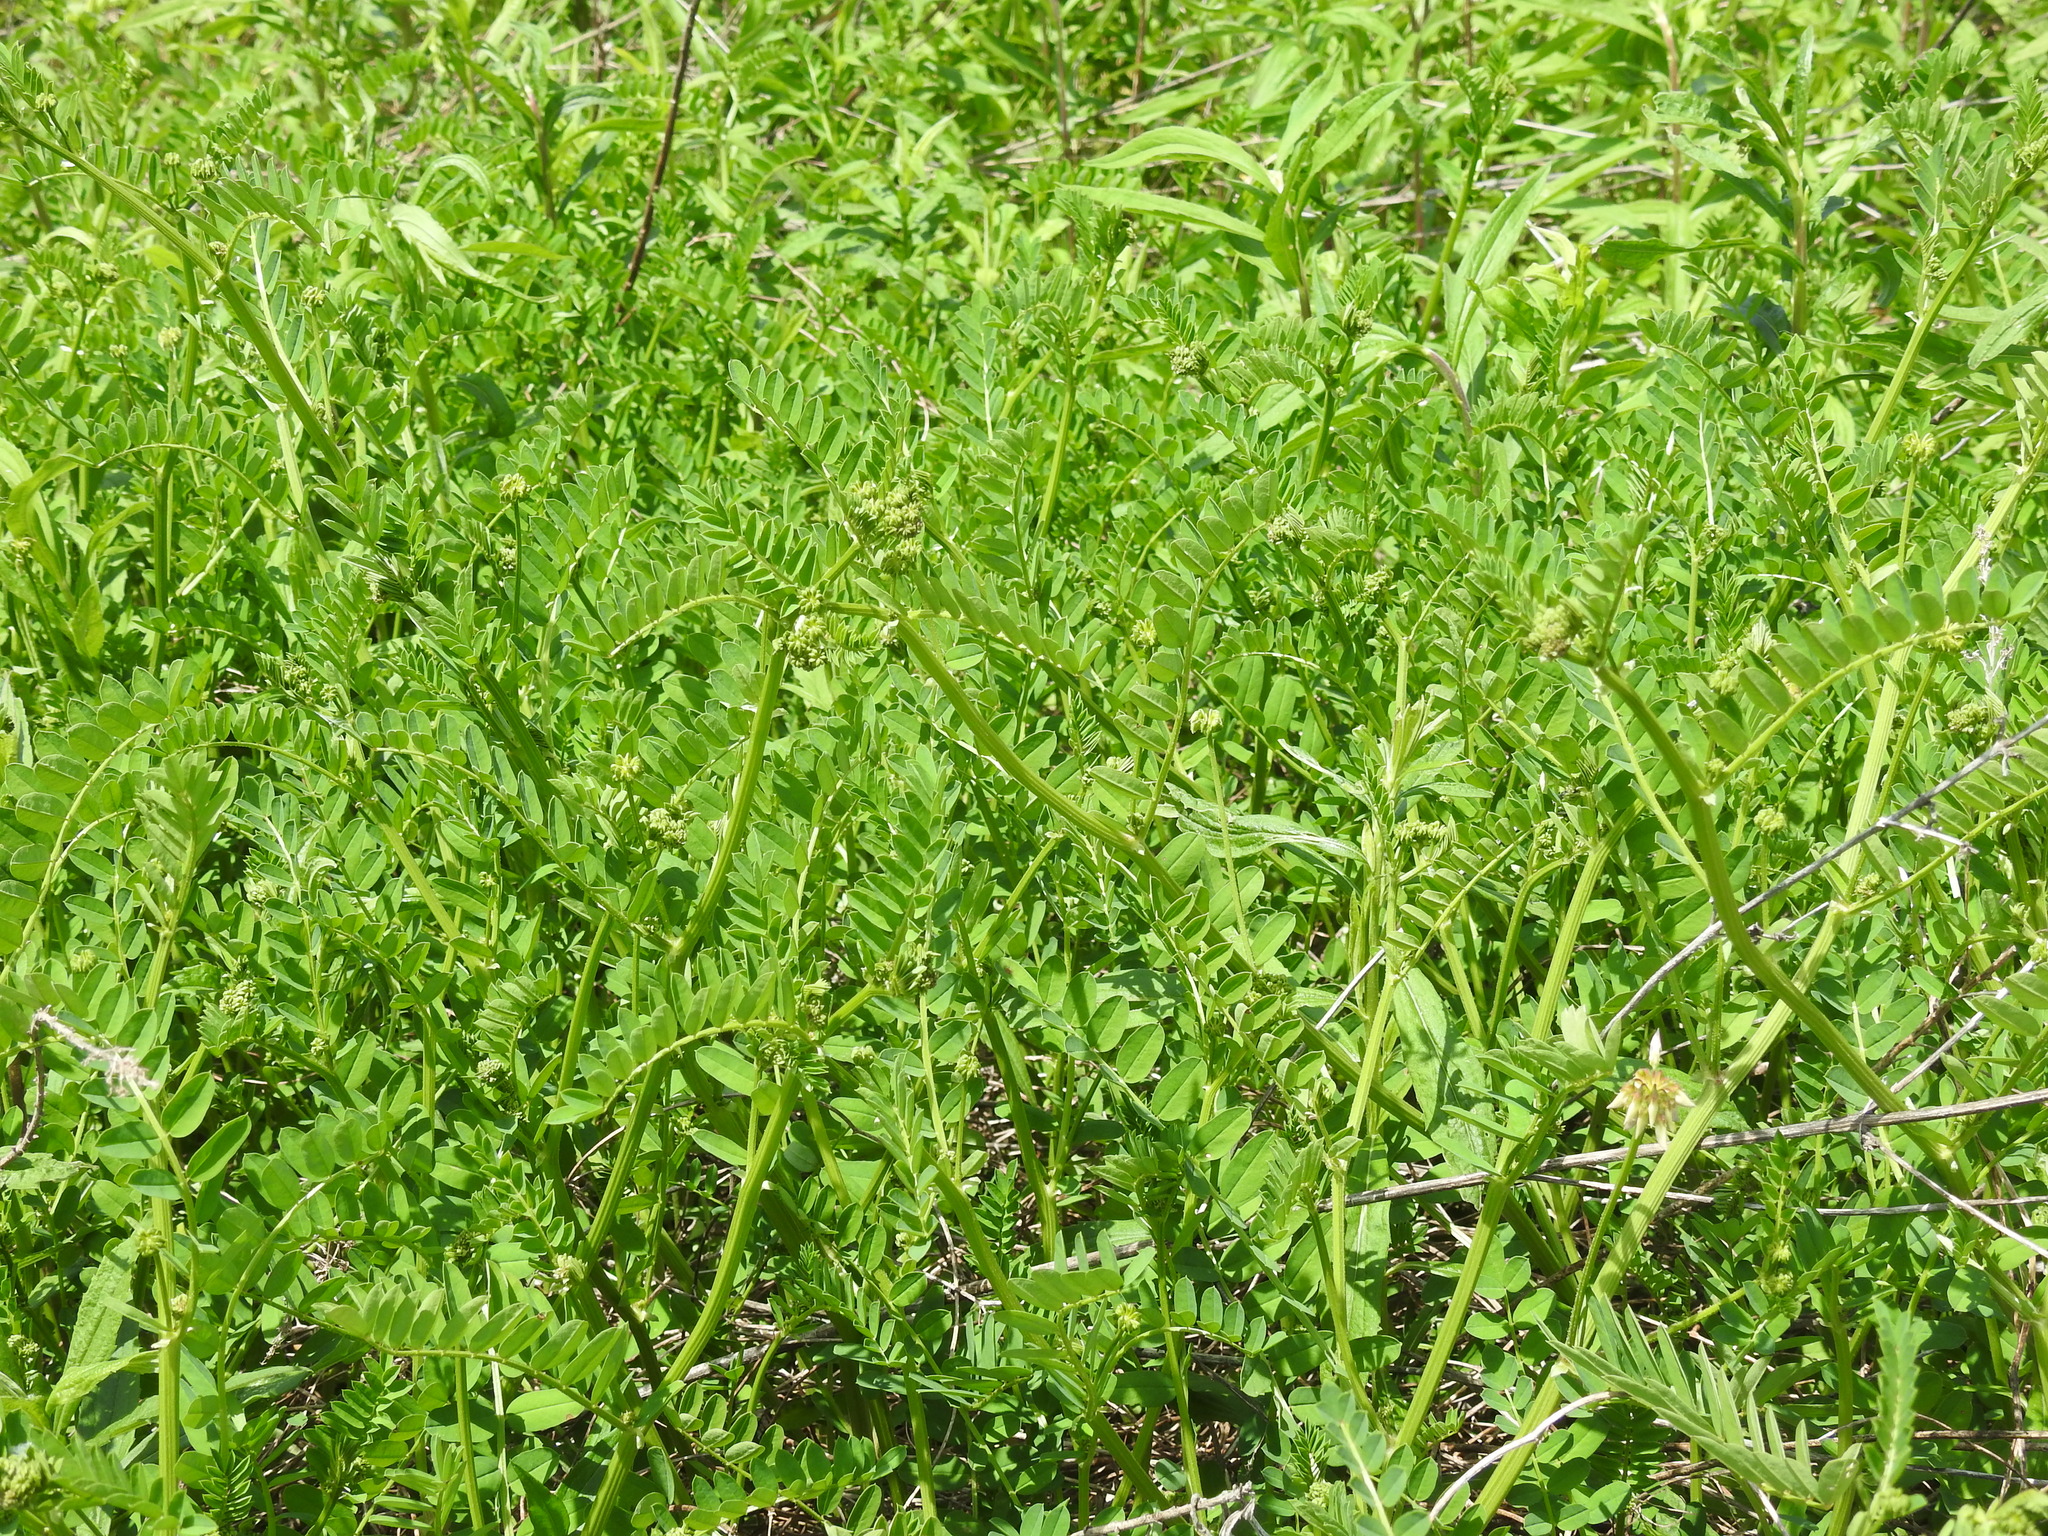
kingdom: Plantae
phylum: Tracheophyta
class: Magnoliopsida
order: Fabales
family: Fabaceae
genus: Coronilla
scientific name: Coronilla varia
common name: Crownvetch
